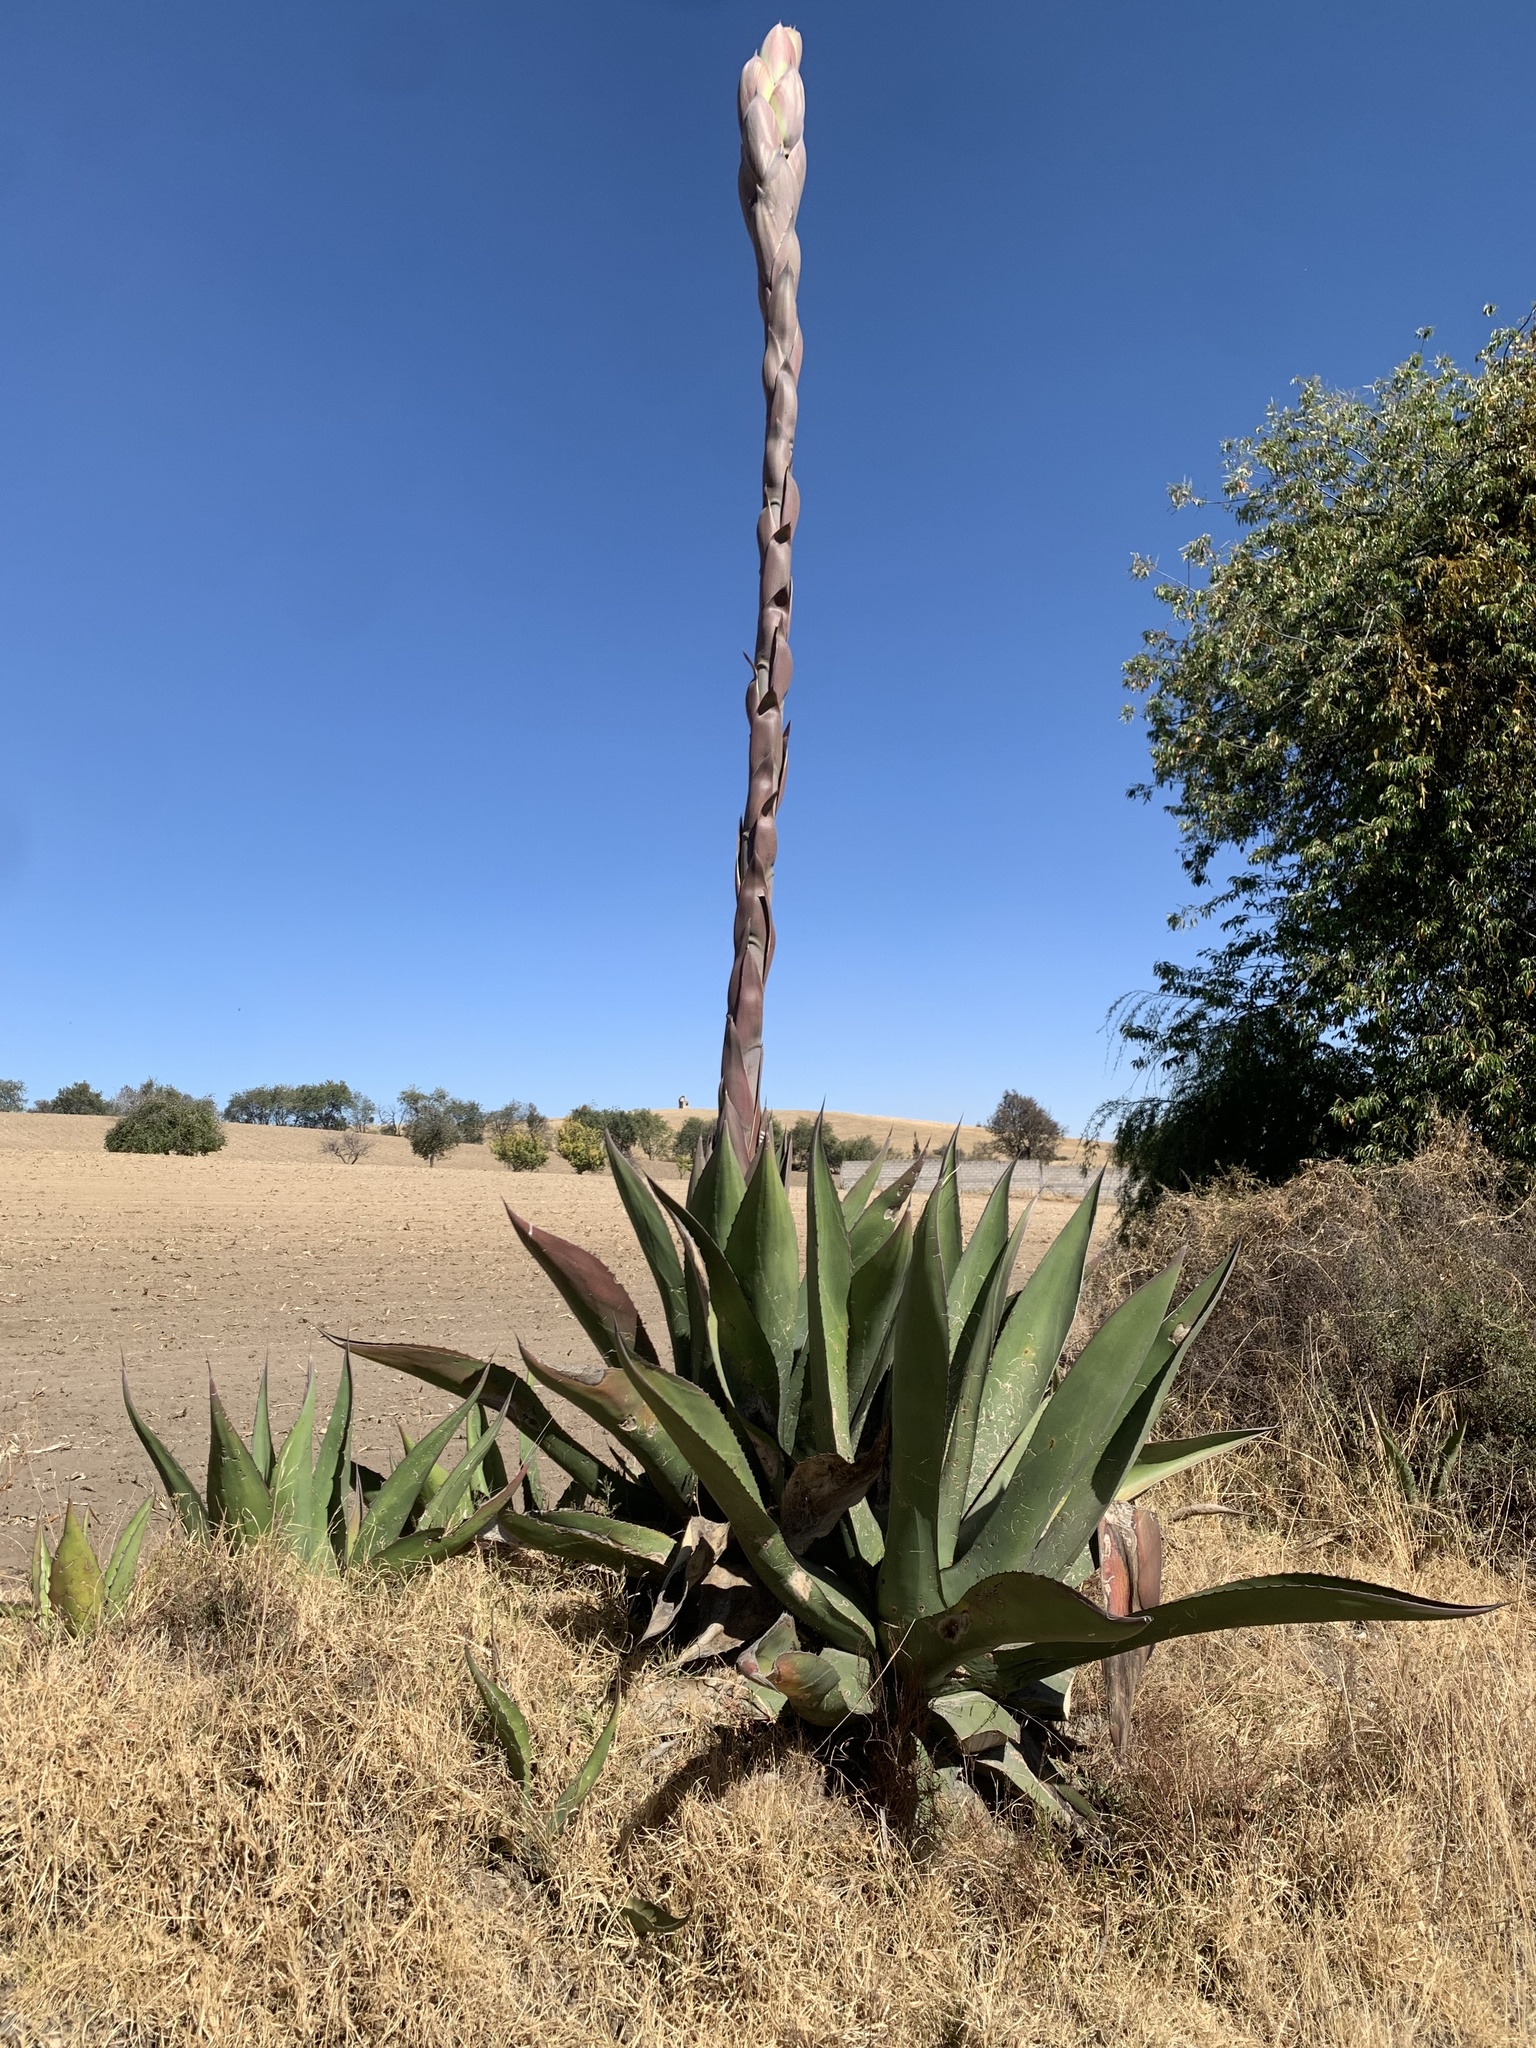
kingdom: Plantae
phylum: Tracheophyta
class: Liliopsida
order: Asparagales
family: Asparagaceae
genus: Agave
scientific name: Agave salmiana
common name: Pulque agave
